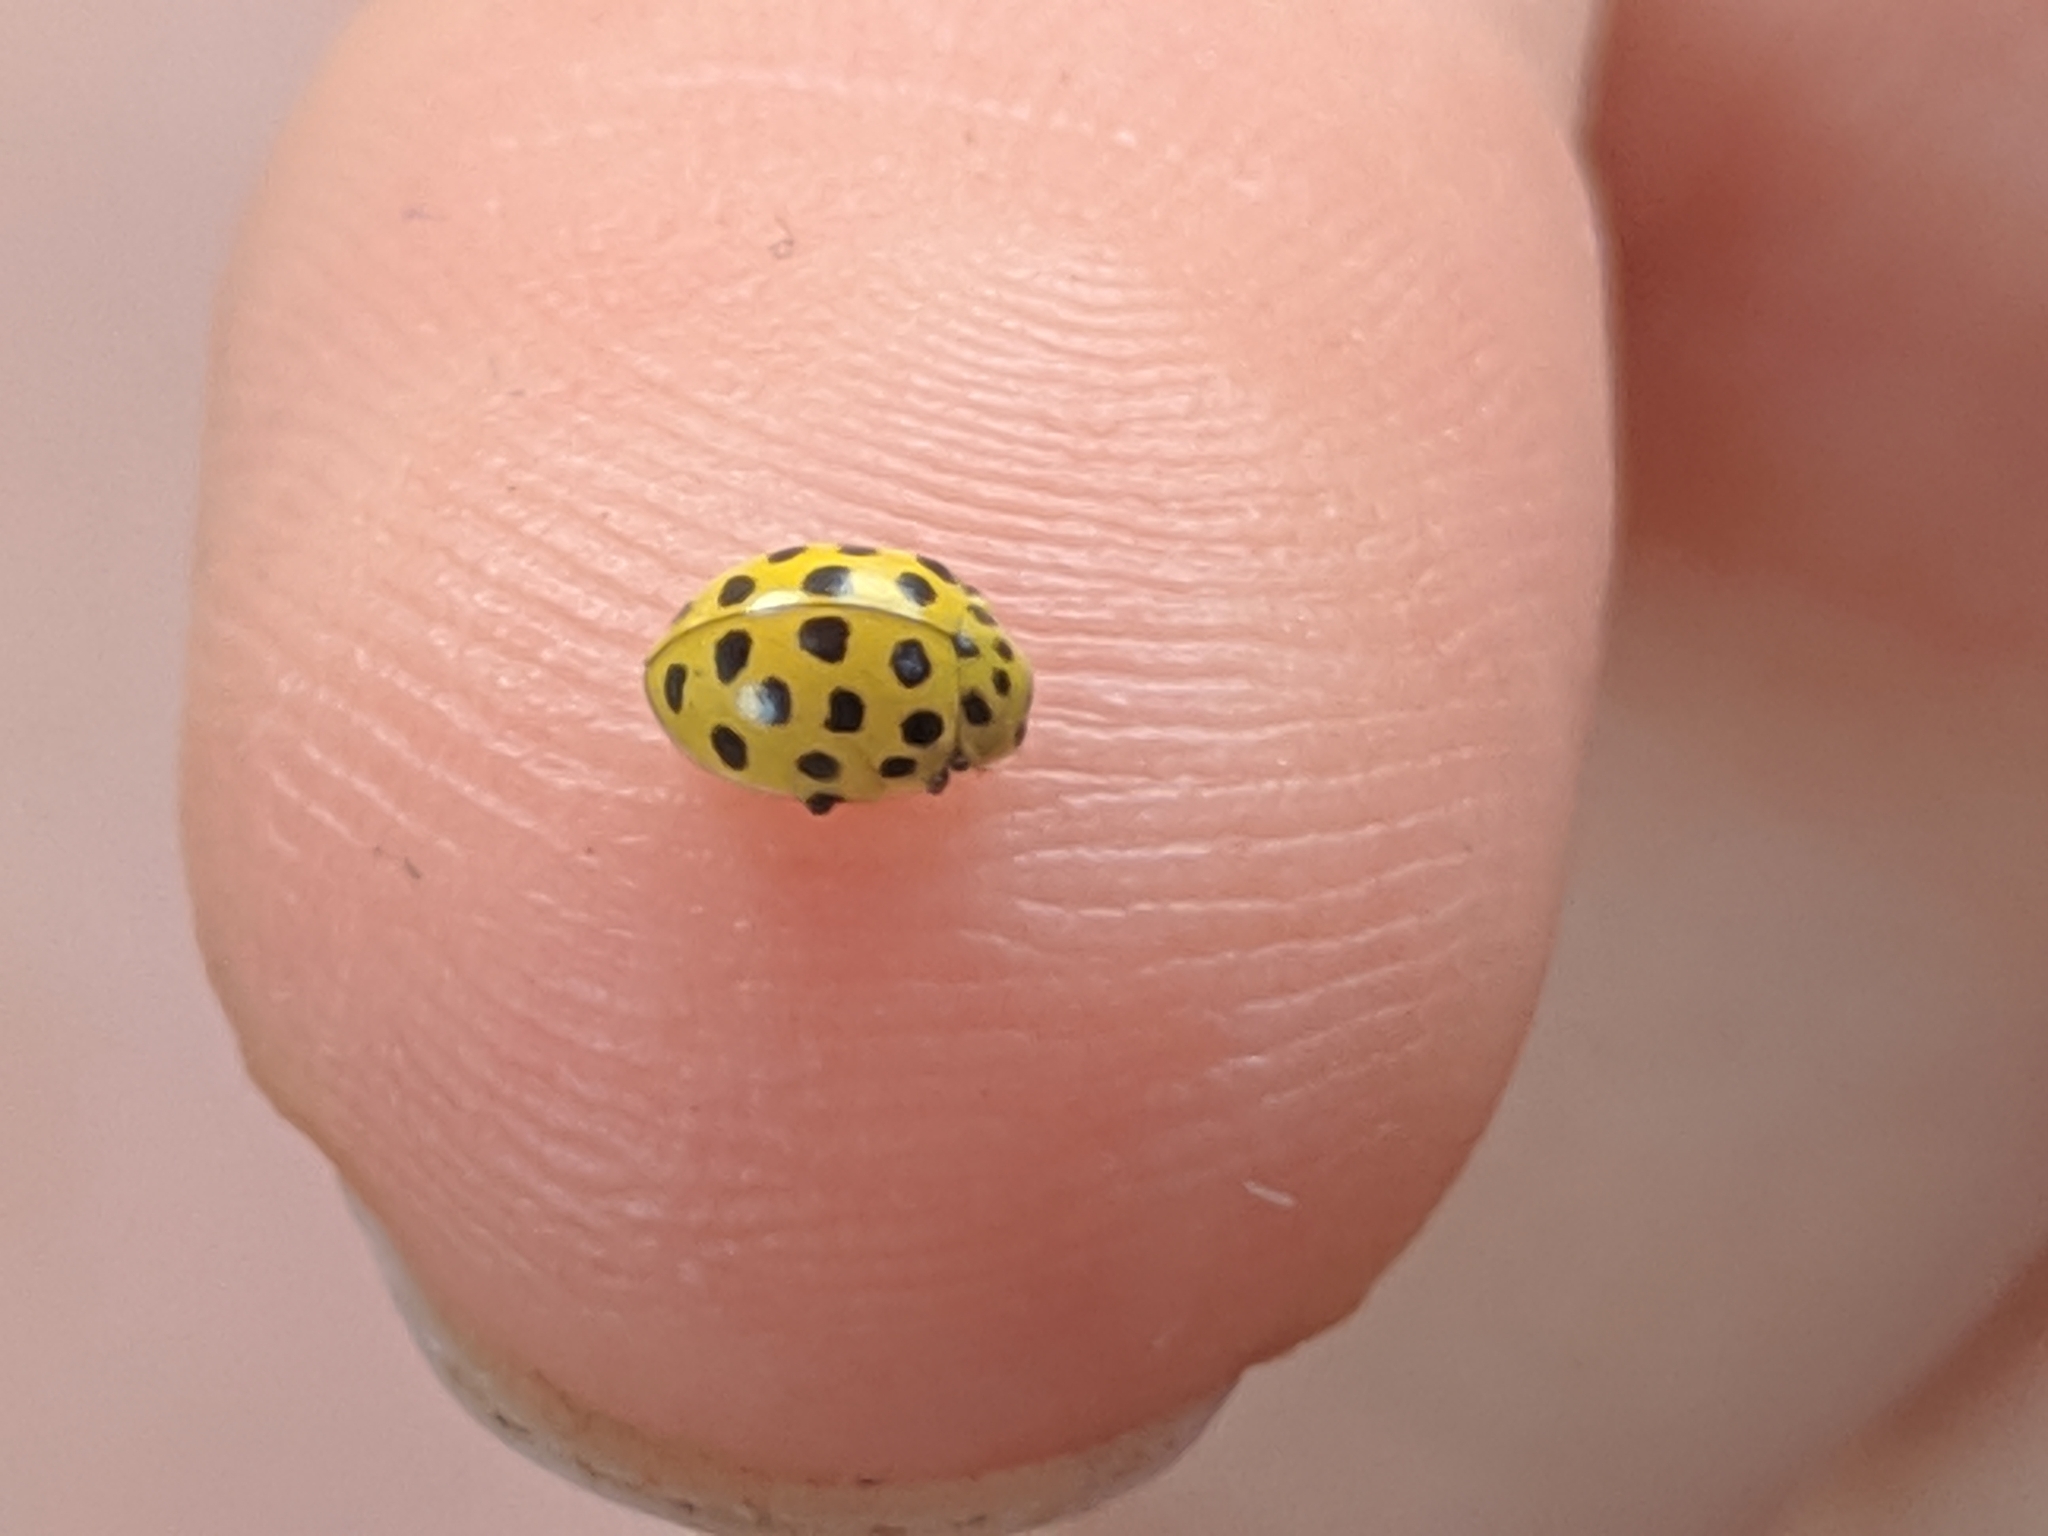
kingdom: Animalia
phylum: Arthropoda
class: Insecta
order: Coleoptera
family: Coccinellidae
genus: Psyllobora
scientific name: Psyllobora vigintiduopunctata
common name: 22-spot ladybird
